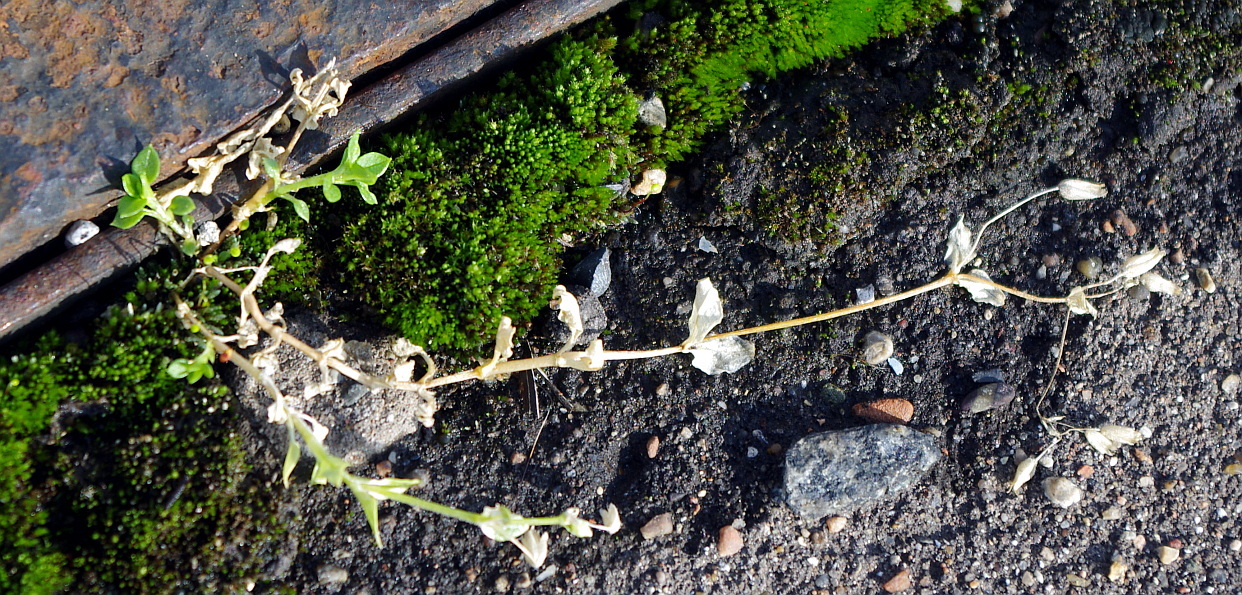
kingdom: Plantae
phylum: Tracheophyta
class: Magnoliopsida
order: Caryophyllales
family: Caryophyllaceae
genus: Cerastium
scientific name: Cerastium holosteoides
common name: Big chickweed
